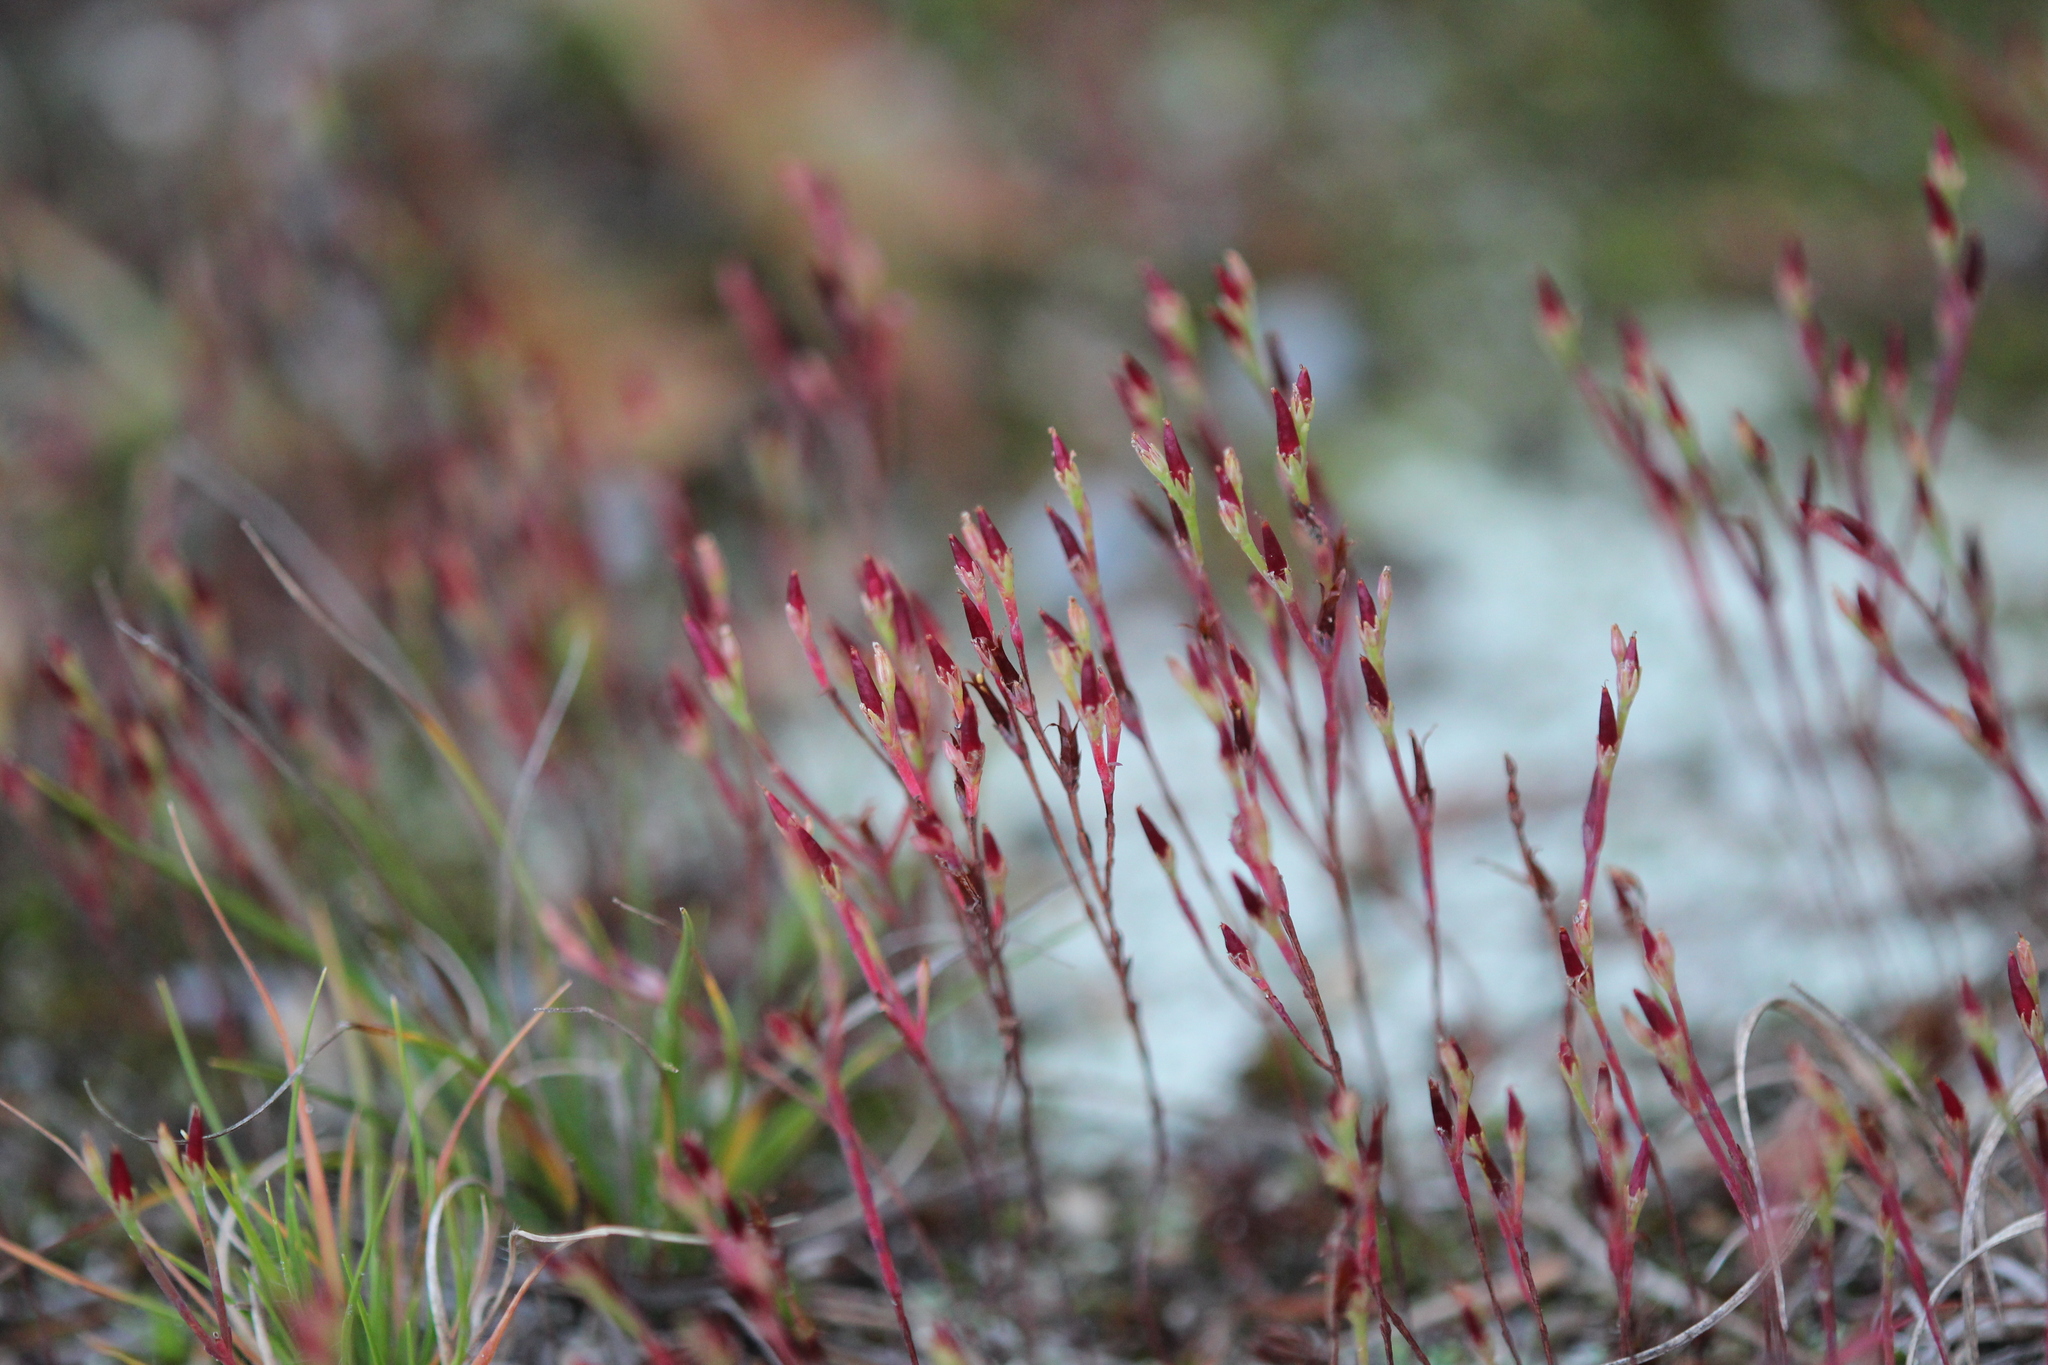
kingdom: Plantae
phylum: Tracheophyta
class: Magnoliopsida
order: Malpighiales
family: Hypericaceae
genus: Hypericum
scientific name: Hypericum gentianoides
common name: Gentian-leaved st. john's-wort
